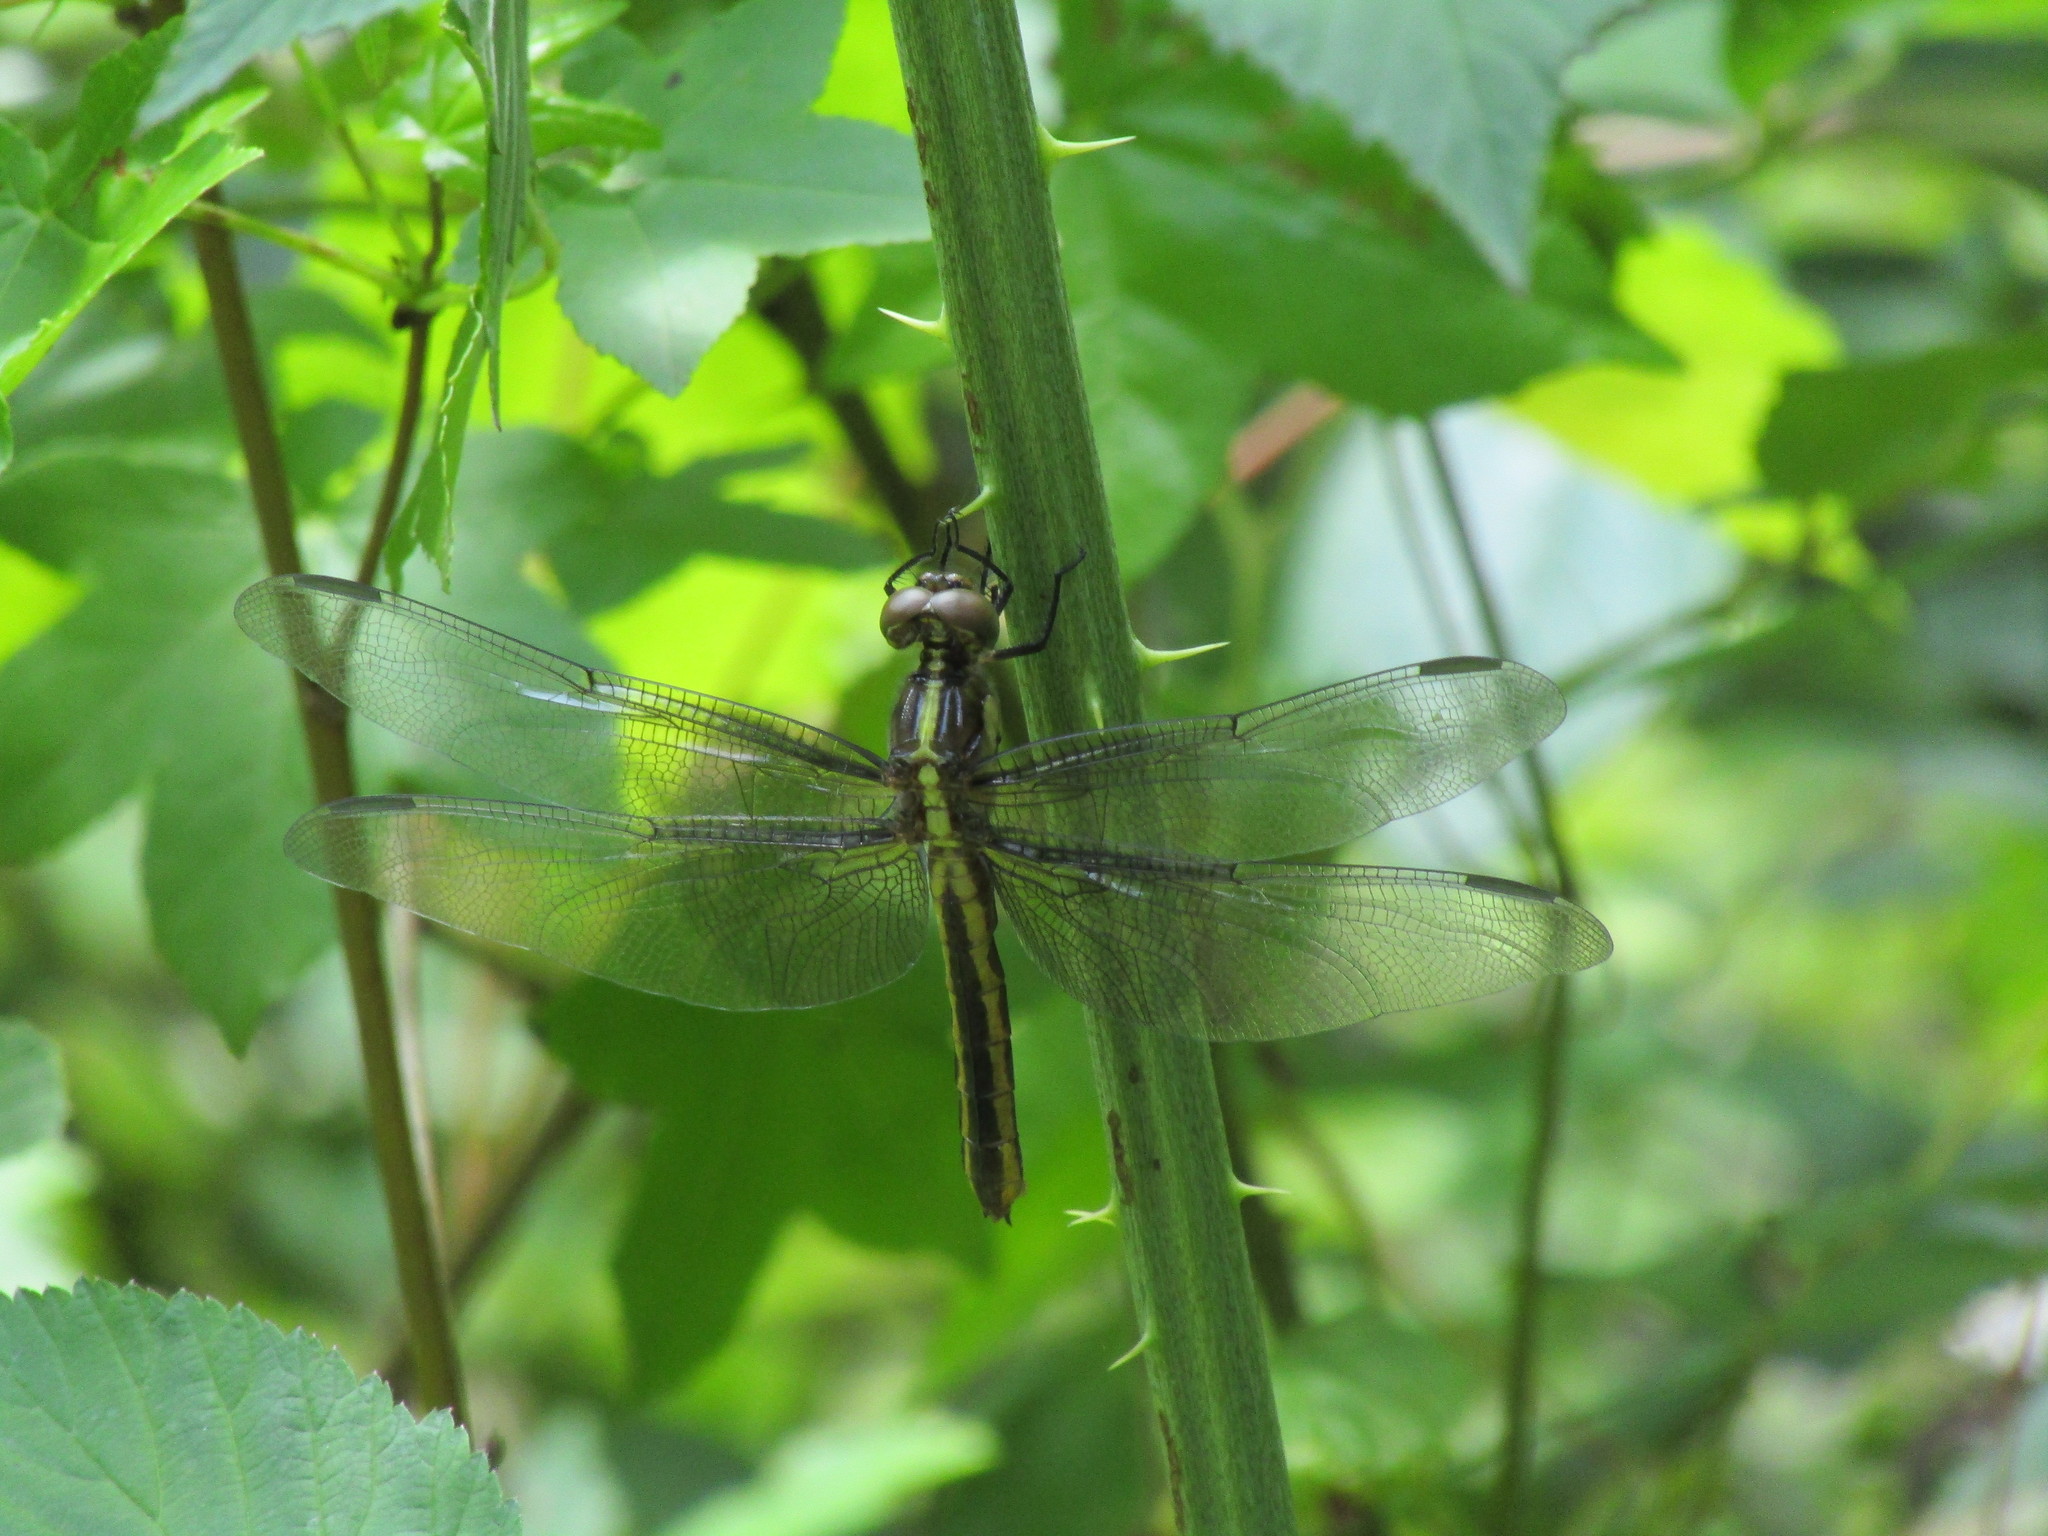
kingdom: Animalia
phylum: Arthropoda
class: Insecta
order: Odonata
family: Libellulidae
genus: Libellula
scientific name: Libellula luctuosa
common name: Widow skimmer
